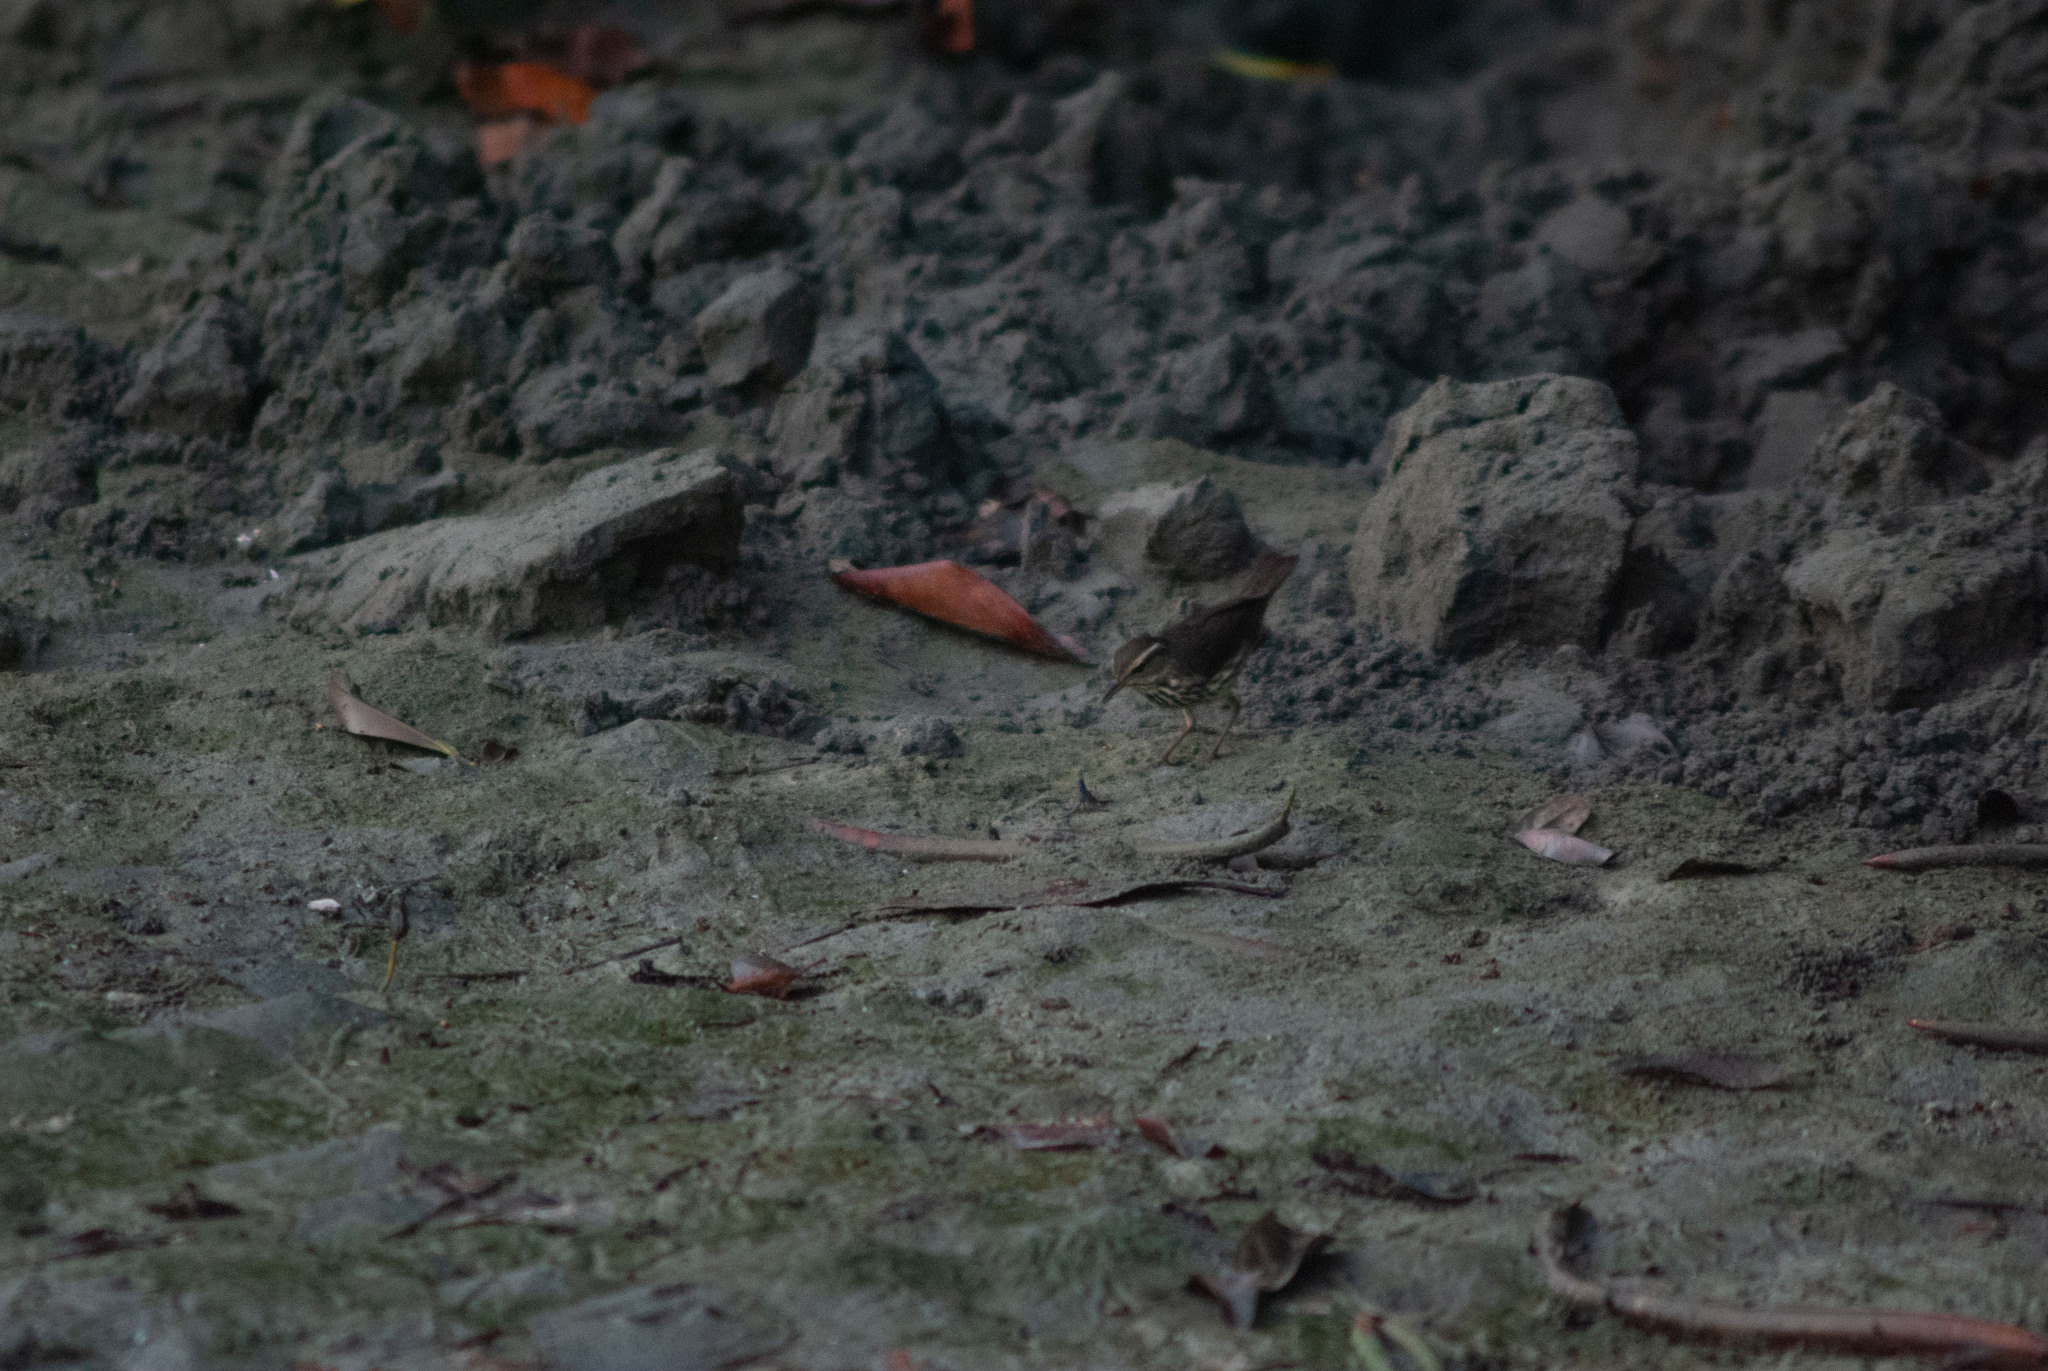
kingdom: Animalia
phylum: Chordata
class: Aves
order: Passeriformes
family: Parulidae
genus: Parkesia
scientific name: Parkesia noveboracensis
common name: Northern waterthrush
